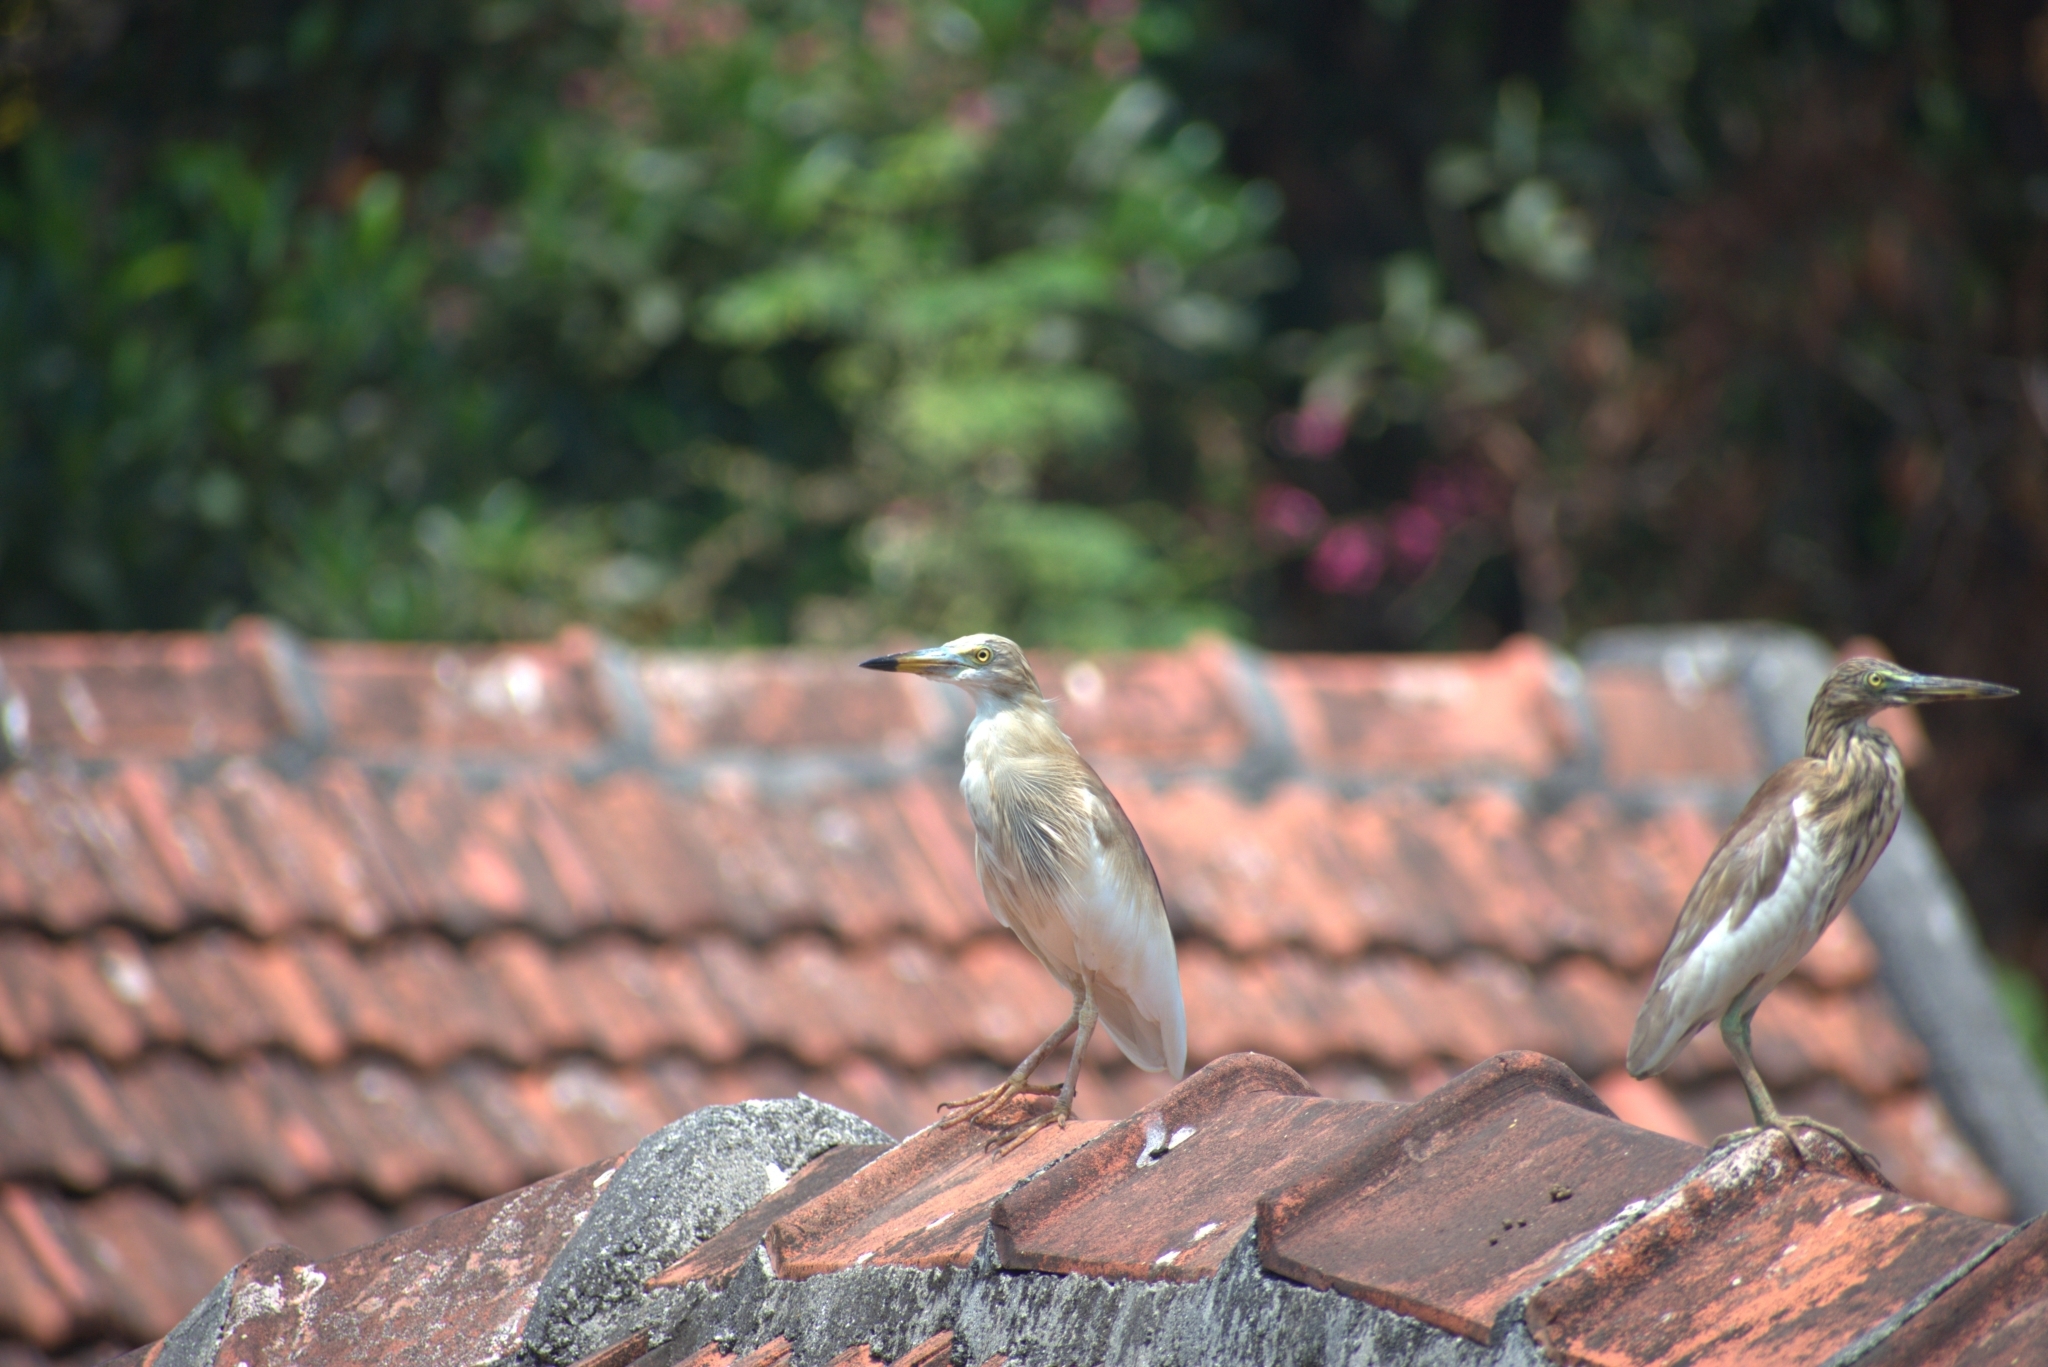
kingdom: Animalia
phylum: Chordata
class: Aves
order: Pelecaniformes
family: Ardeidae
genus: Ardeola
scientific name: Ardeola grayii
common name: Indian pond heron
